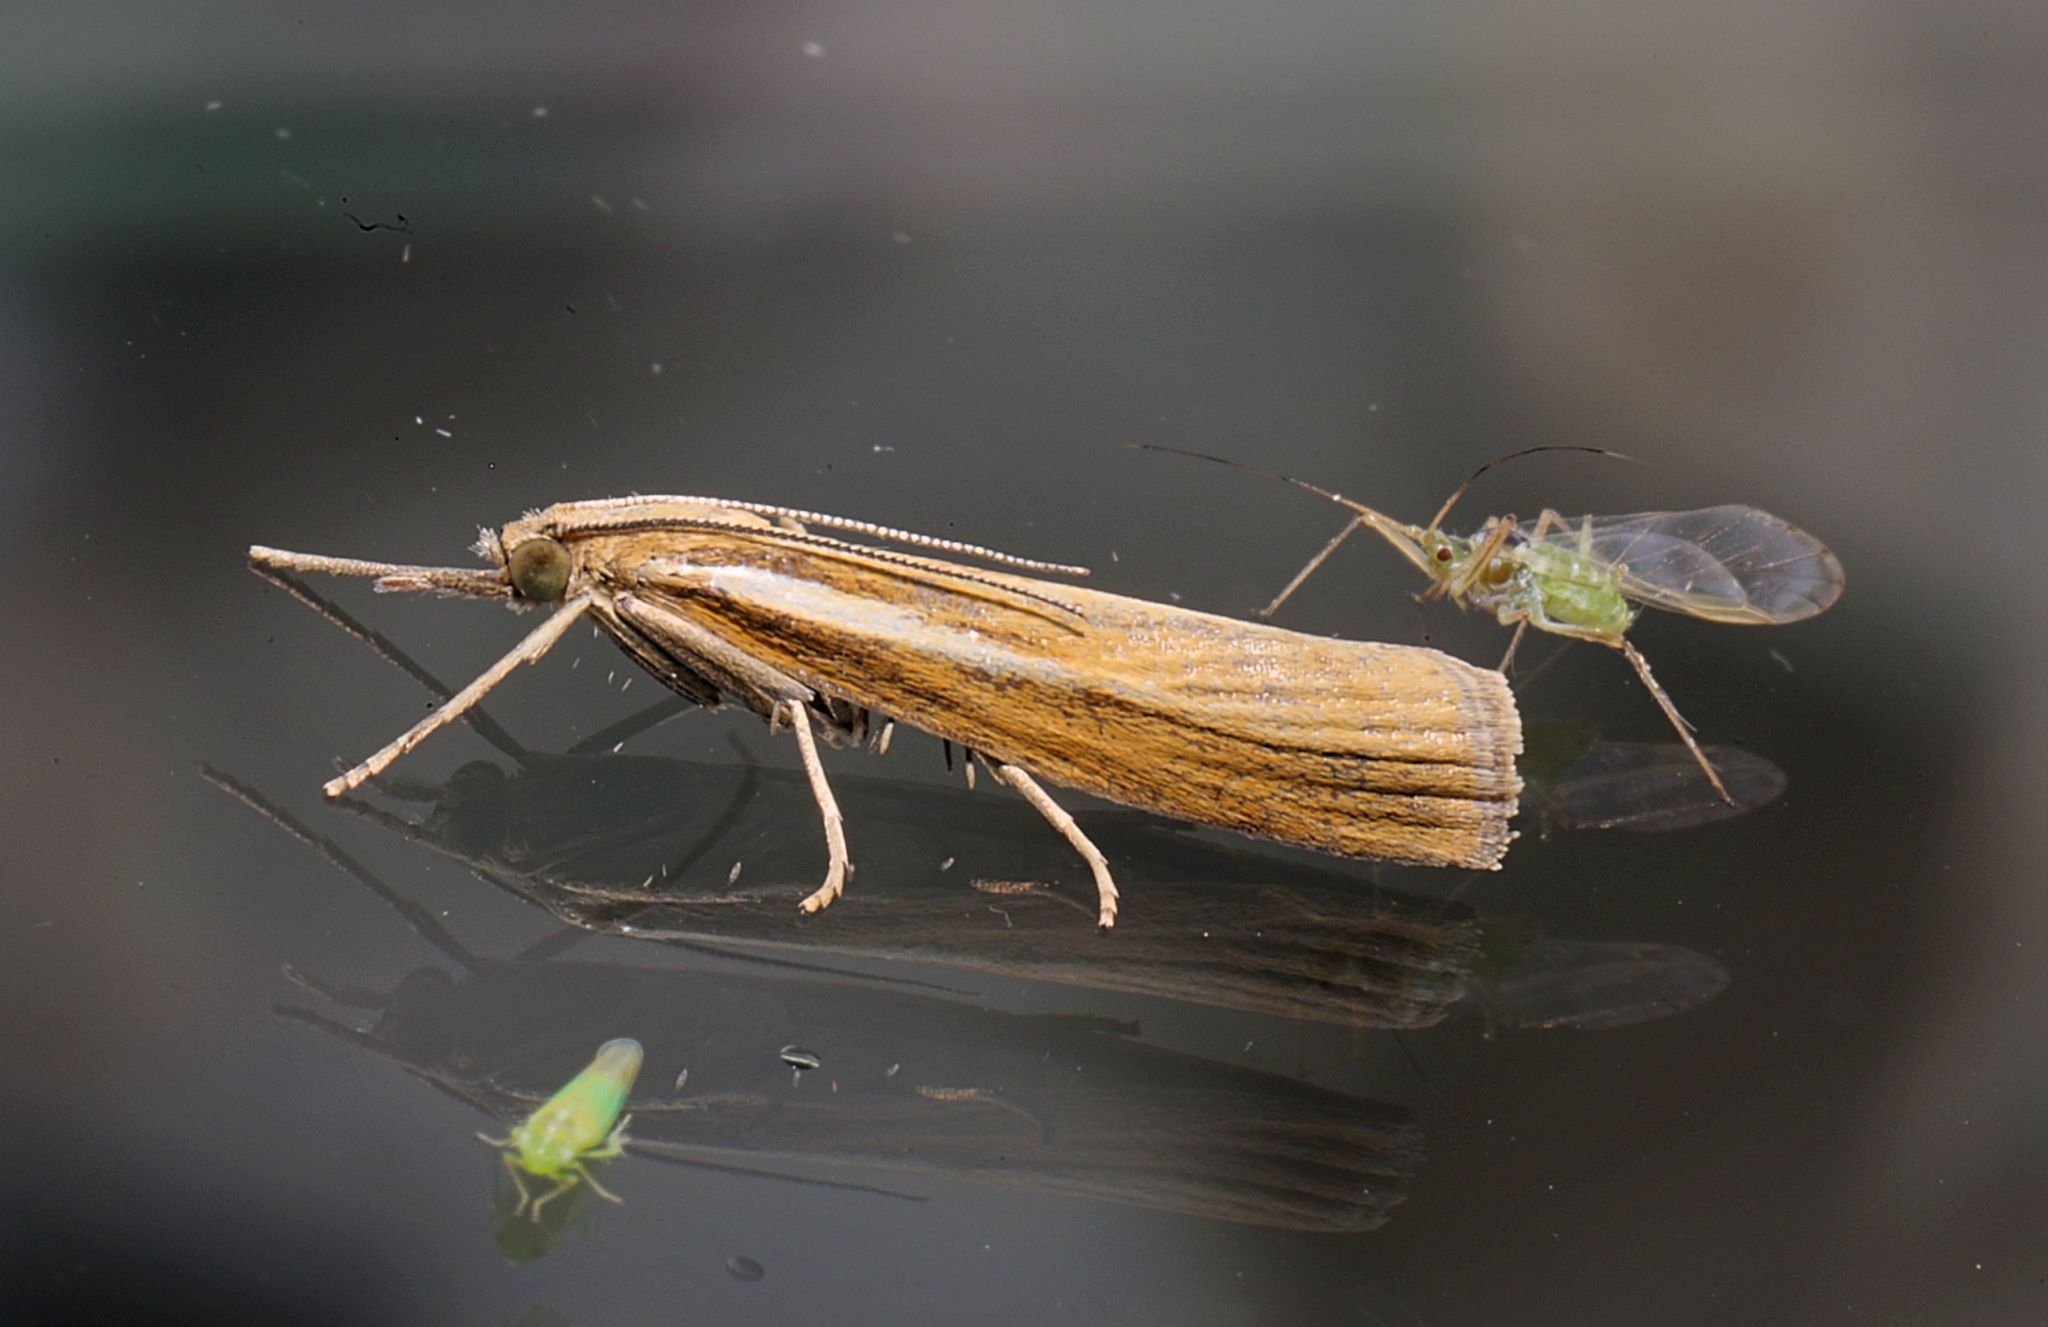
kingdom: Animalia
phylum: Arthropoda
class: Insecta
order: Lepidoptera
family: Crambidae
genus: Agriphila
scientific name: Agriphila tristellus
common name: Common grass-veneer
